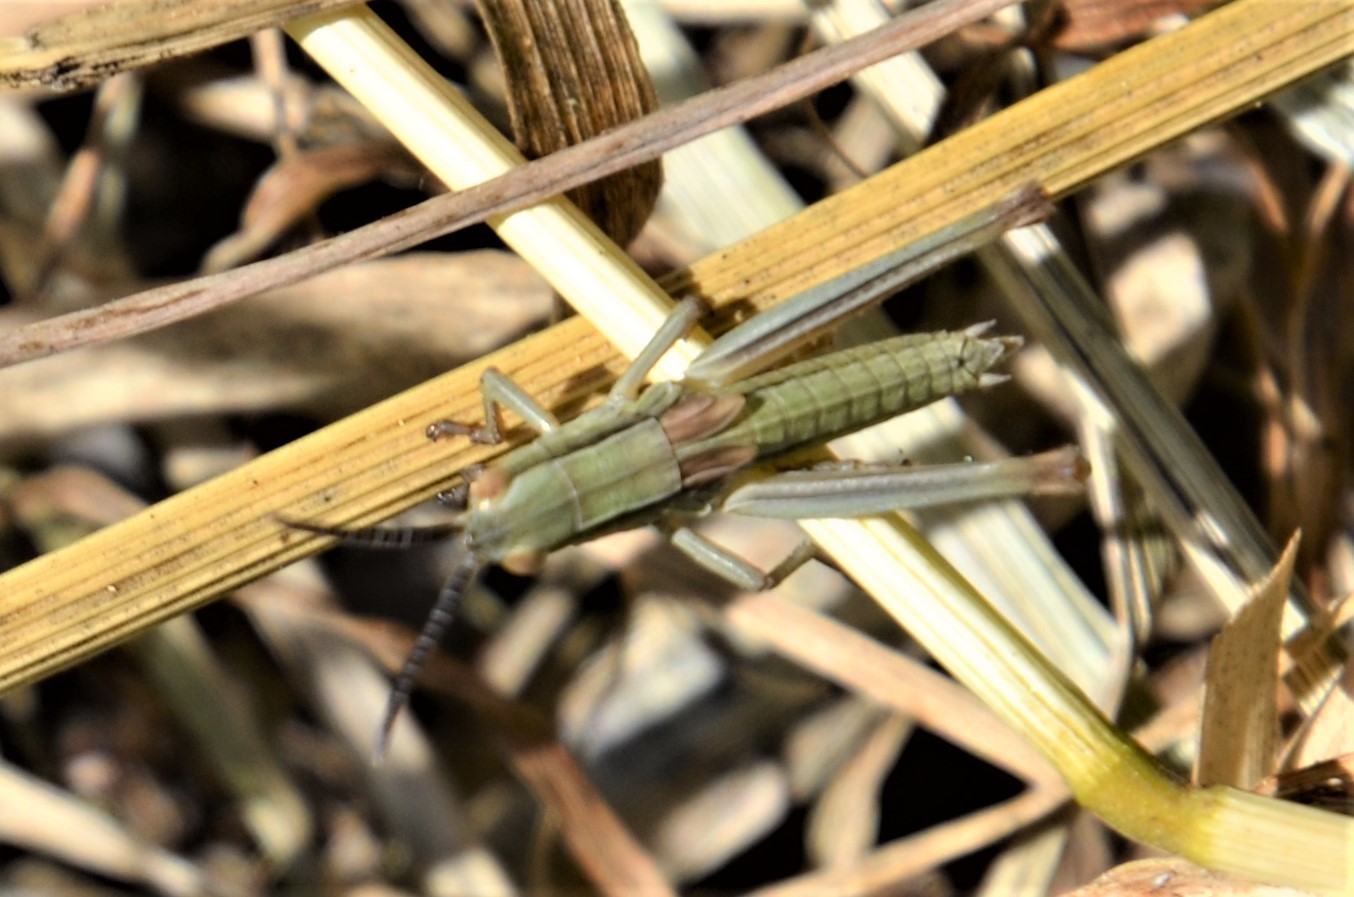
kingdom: Animalia
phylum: Arthropoda
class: Insecta
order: Orthoptera
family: Acrididae
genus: Euthystira
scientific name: Euthystira brachyptera
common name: Small gold grasshopper
